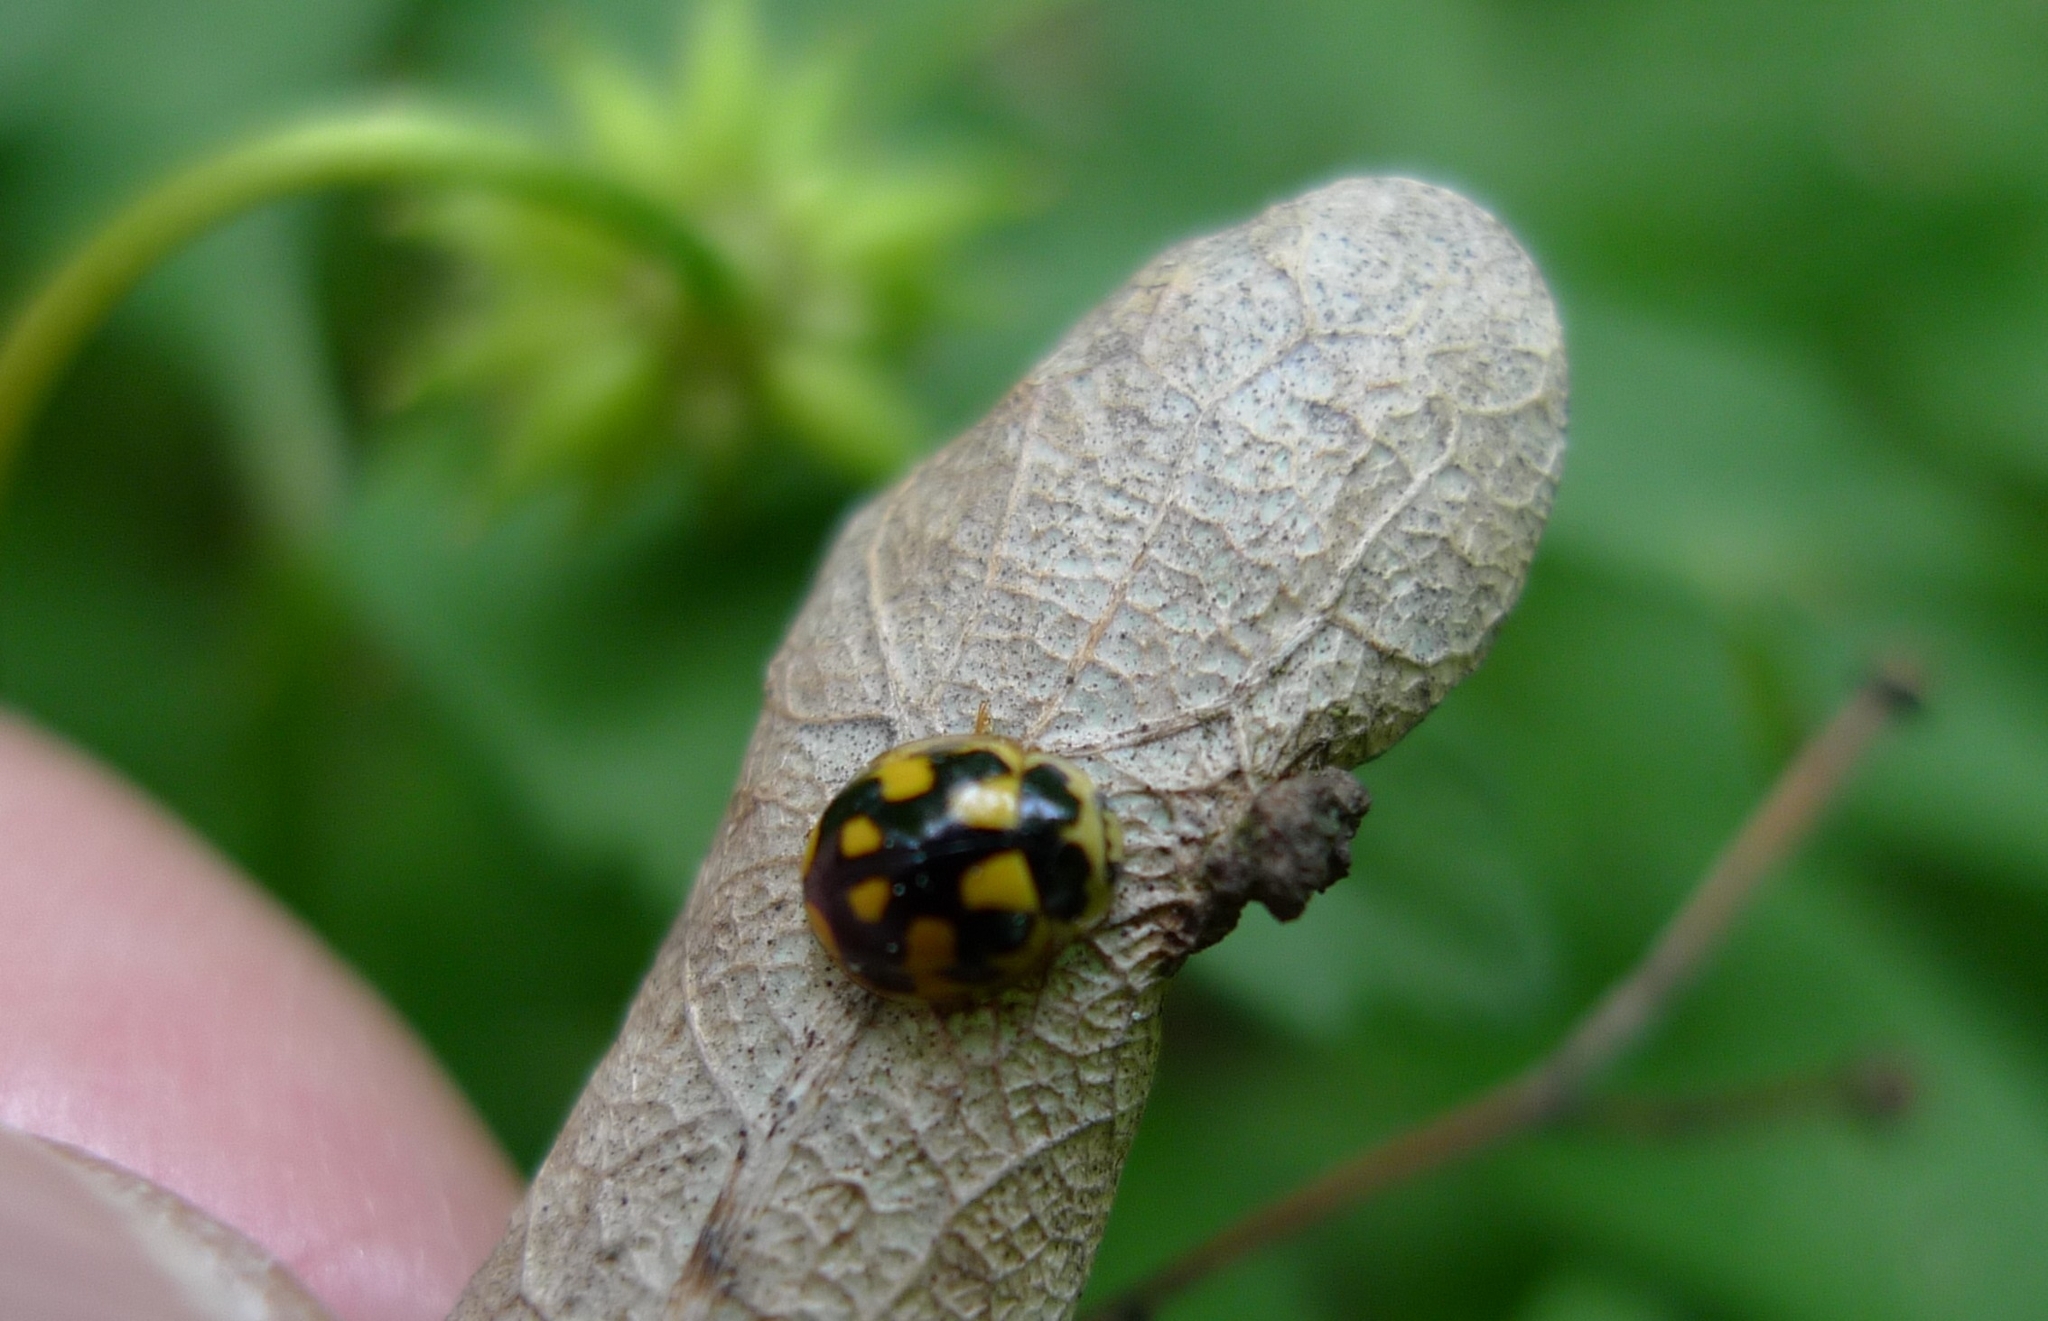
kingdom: Animalia
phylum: Arthropoda
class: Insecta
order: Coleoptera
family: Coccinellidae
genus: Propylaea
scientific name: Propylaea quatuordecimpunctata
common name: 14-spotted ladybird beetle
